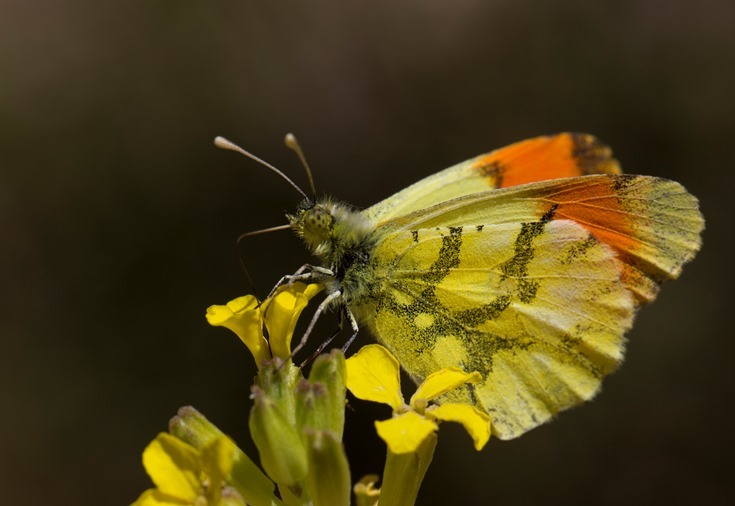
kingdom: Animalia
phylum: Arthropoda
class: Insecta
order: Lepidoptera
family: Pieridae
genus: Anthocharis
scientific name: Anthocharis euphenoides
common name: Provence orange-tip
